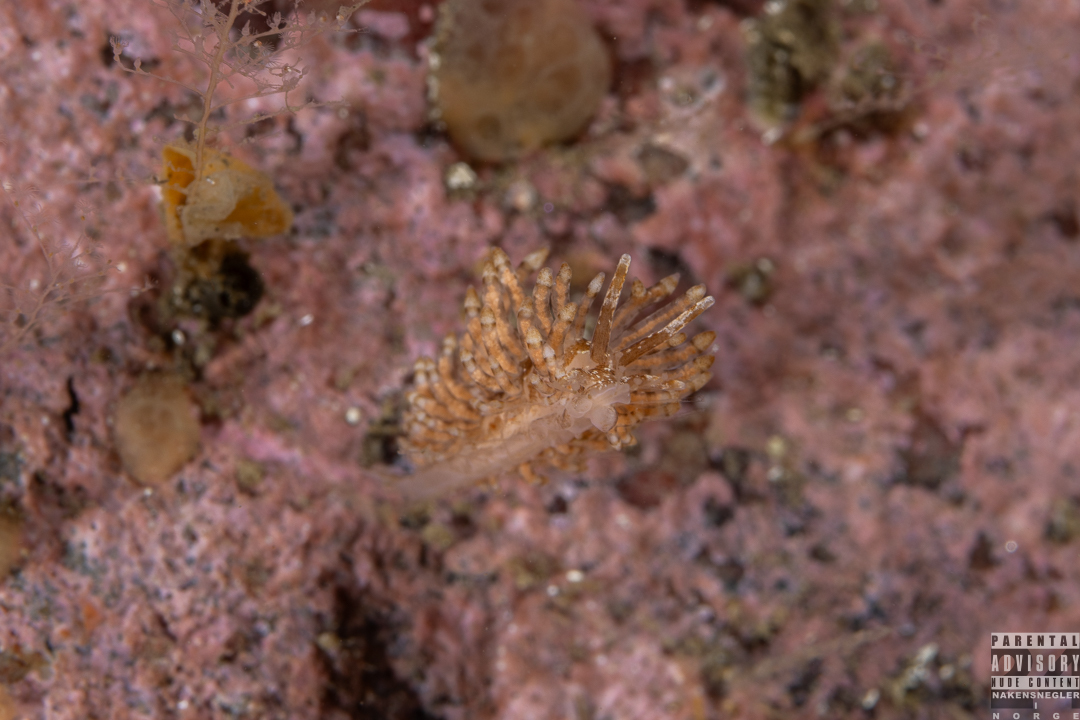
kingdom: Animalia
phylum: Mollusca
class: Gastropoda
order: Nudibranchia
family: Eubranchidae
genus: Eubranchus
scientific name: Eubranchus vittatus
